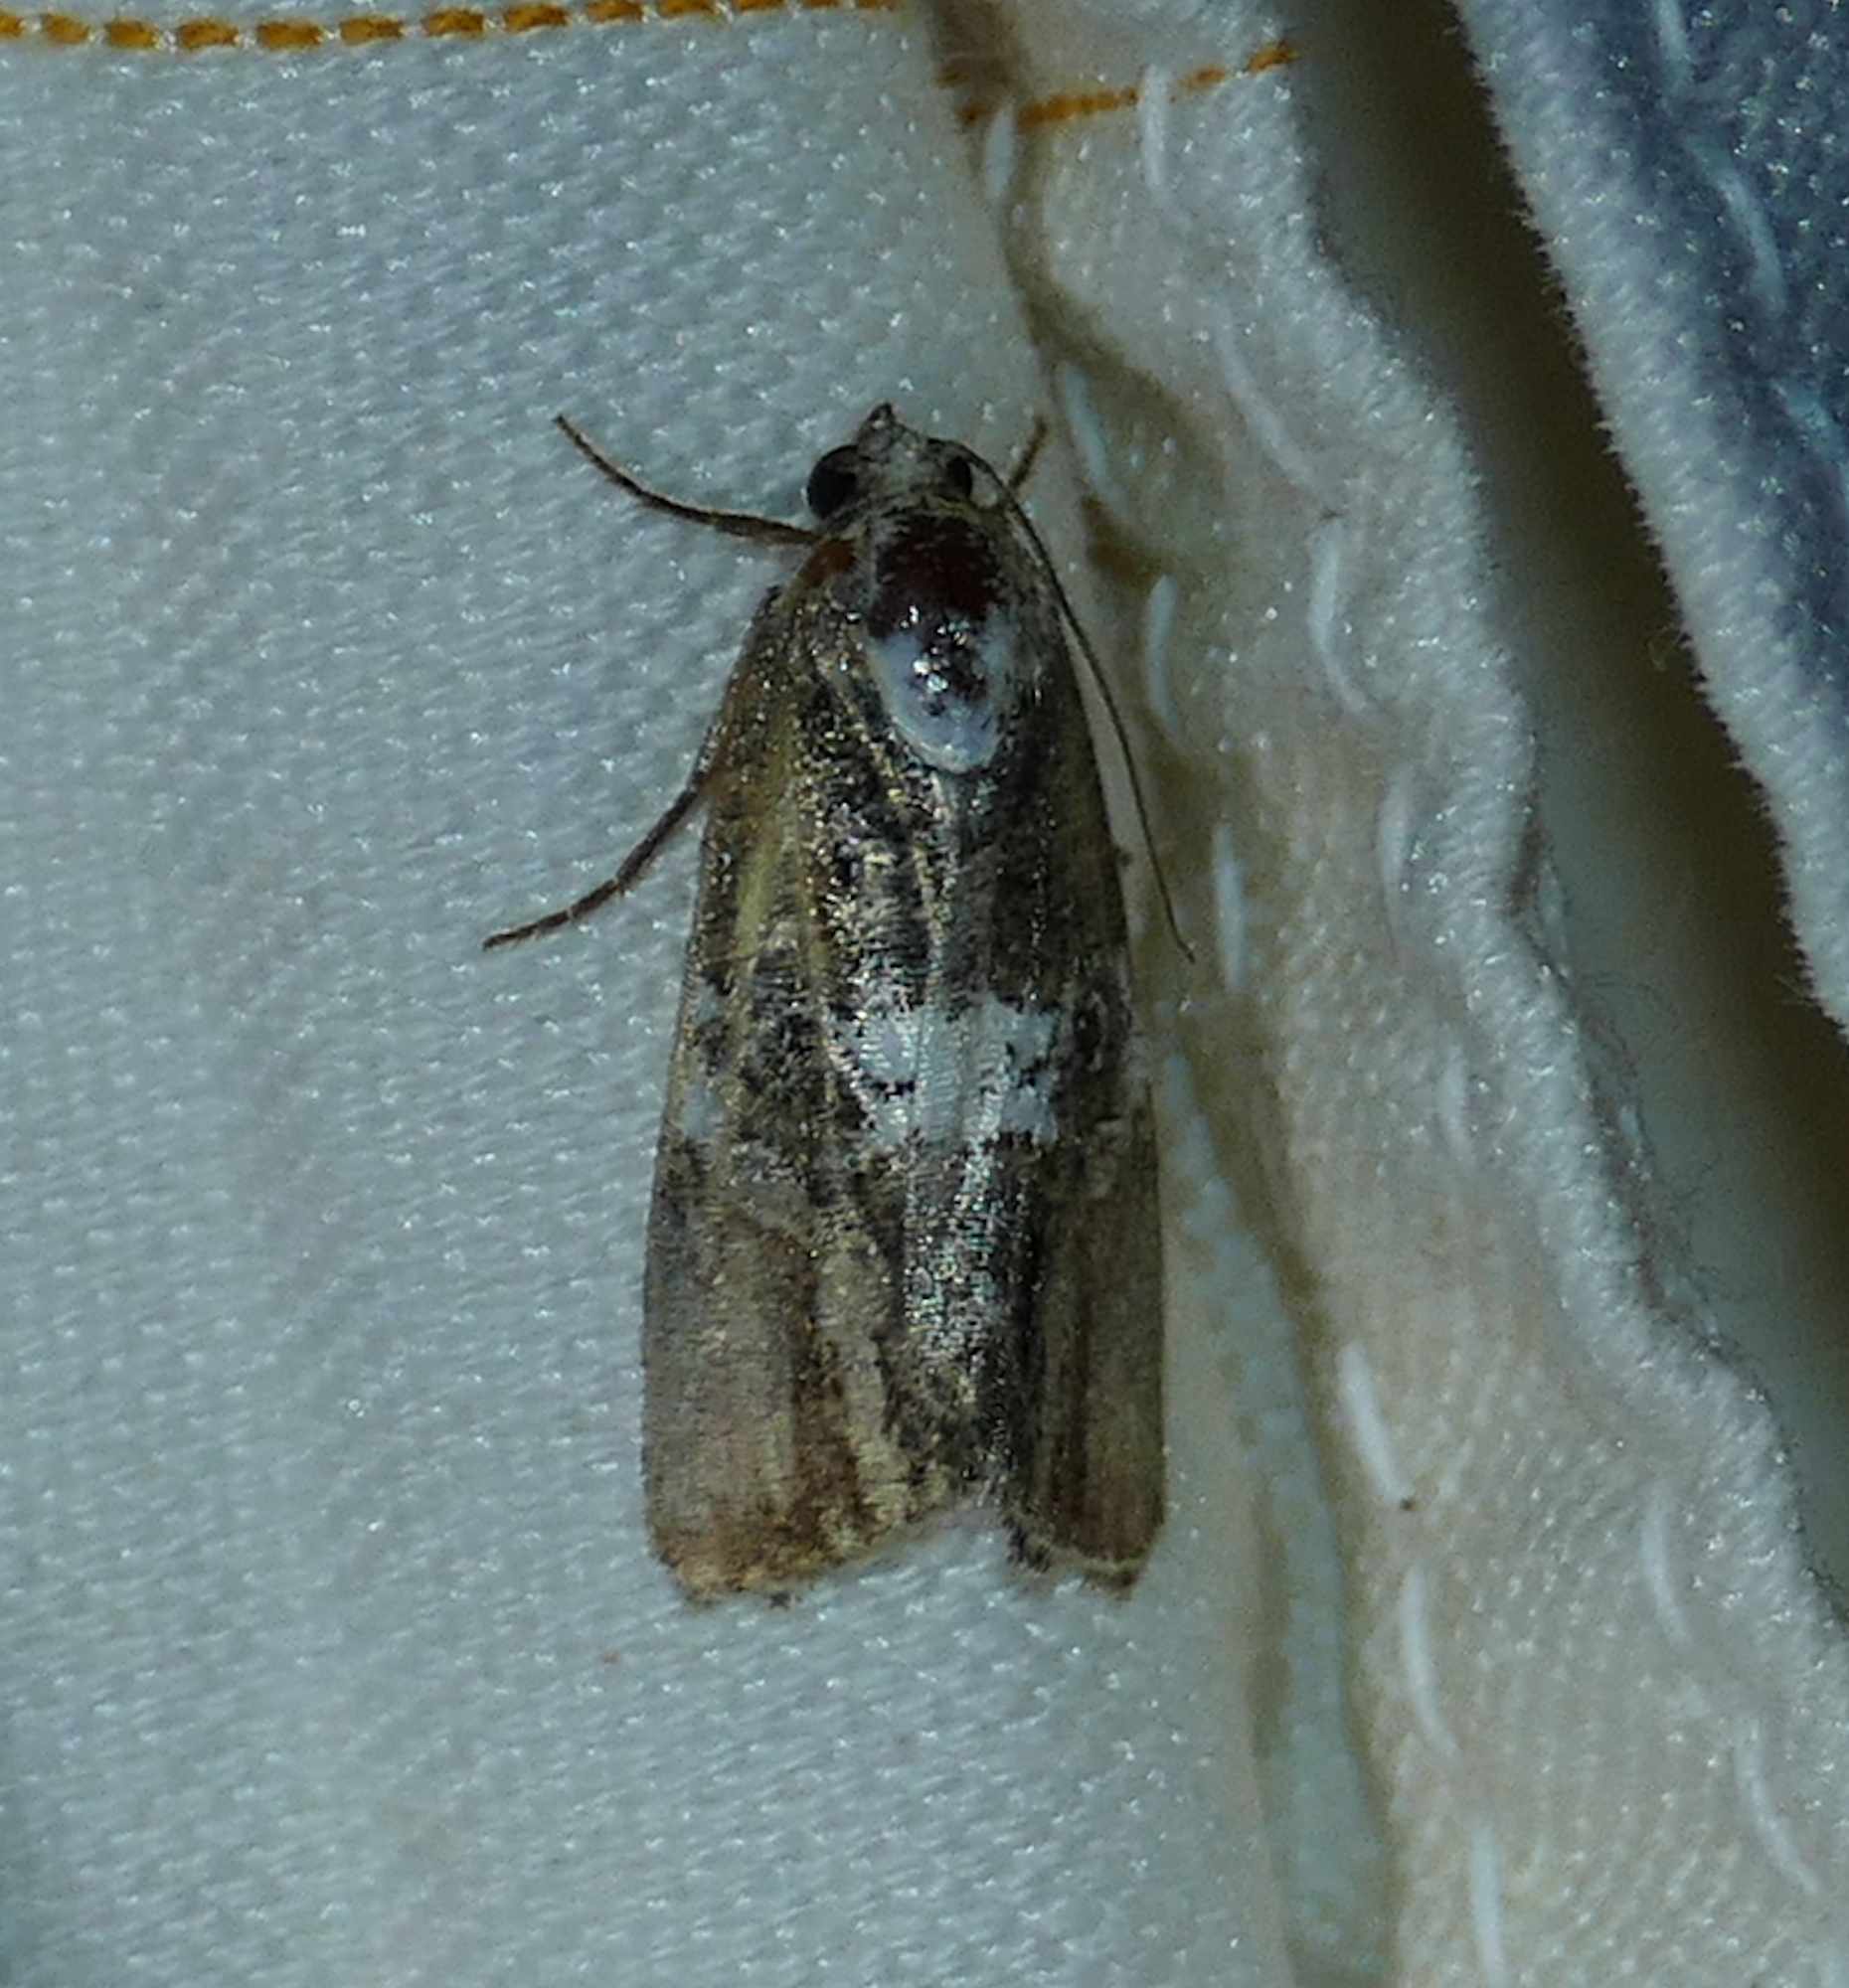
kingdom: Animalia
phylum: Arthropoda
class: Insecta
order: Lepidoptera
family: Noctuidae
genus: Bryolymnia
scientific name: Bryolymnia semifascia
